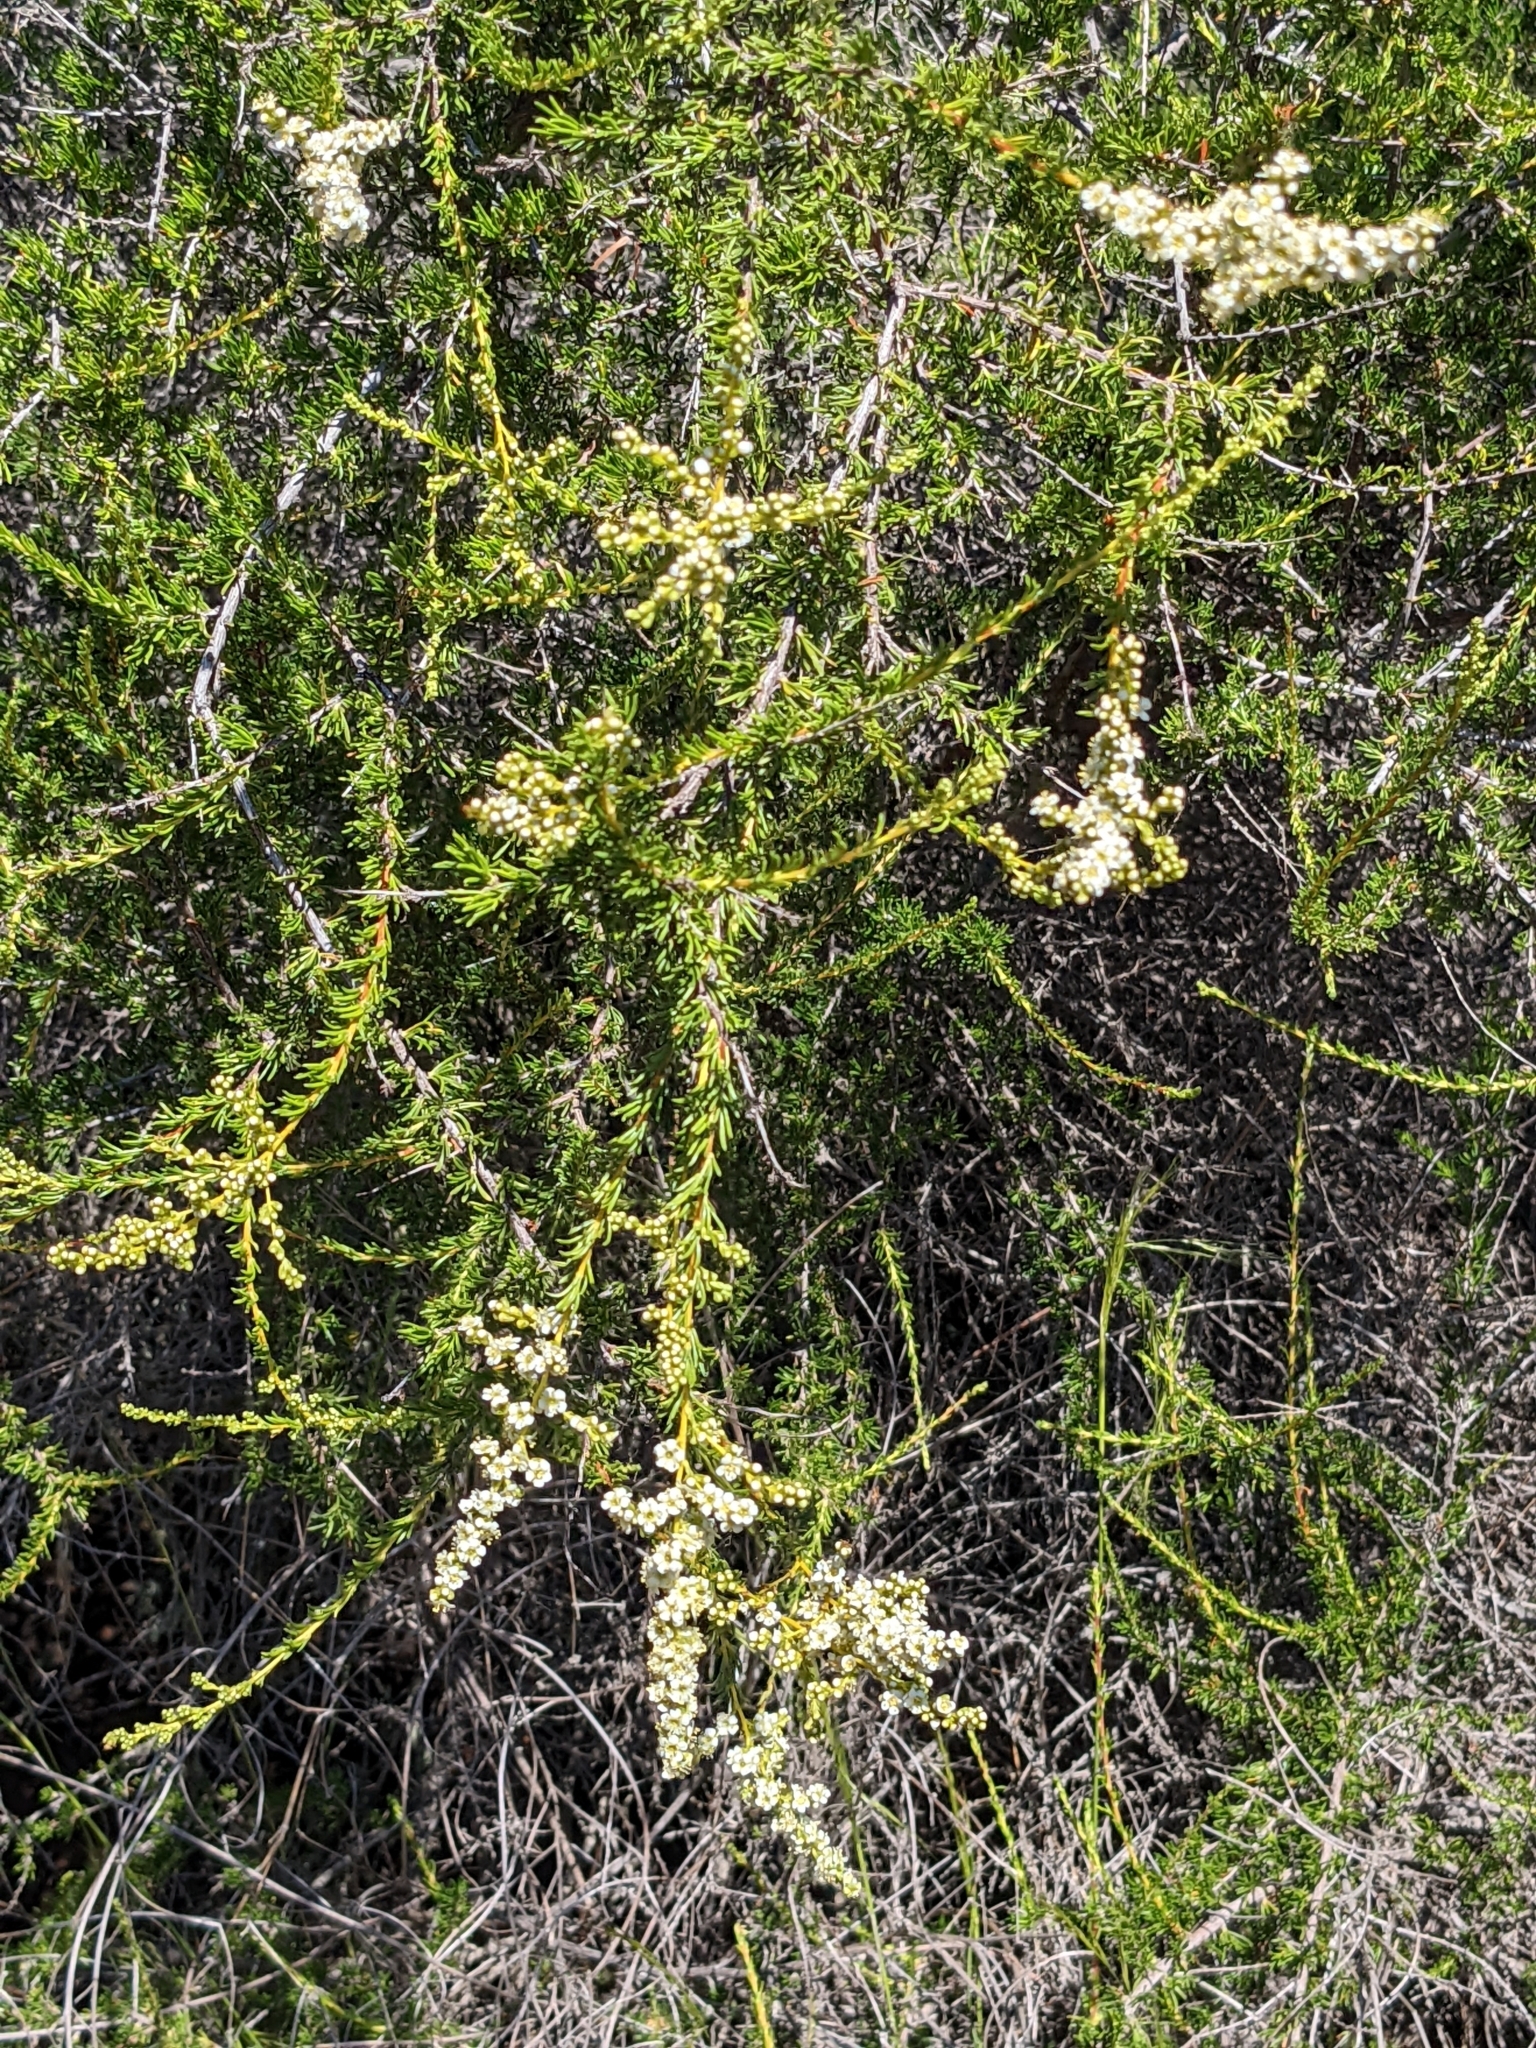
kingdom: Plantae
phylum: Tracheophyta
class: Magnoliopsida
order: Rosales
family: Rosaceae
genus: Adenostoma
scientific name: Adenostoma fasciculatum
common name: Chamise
